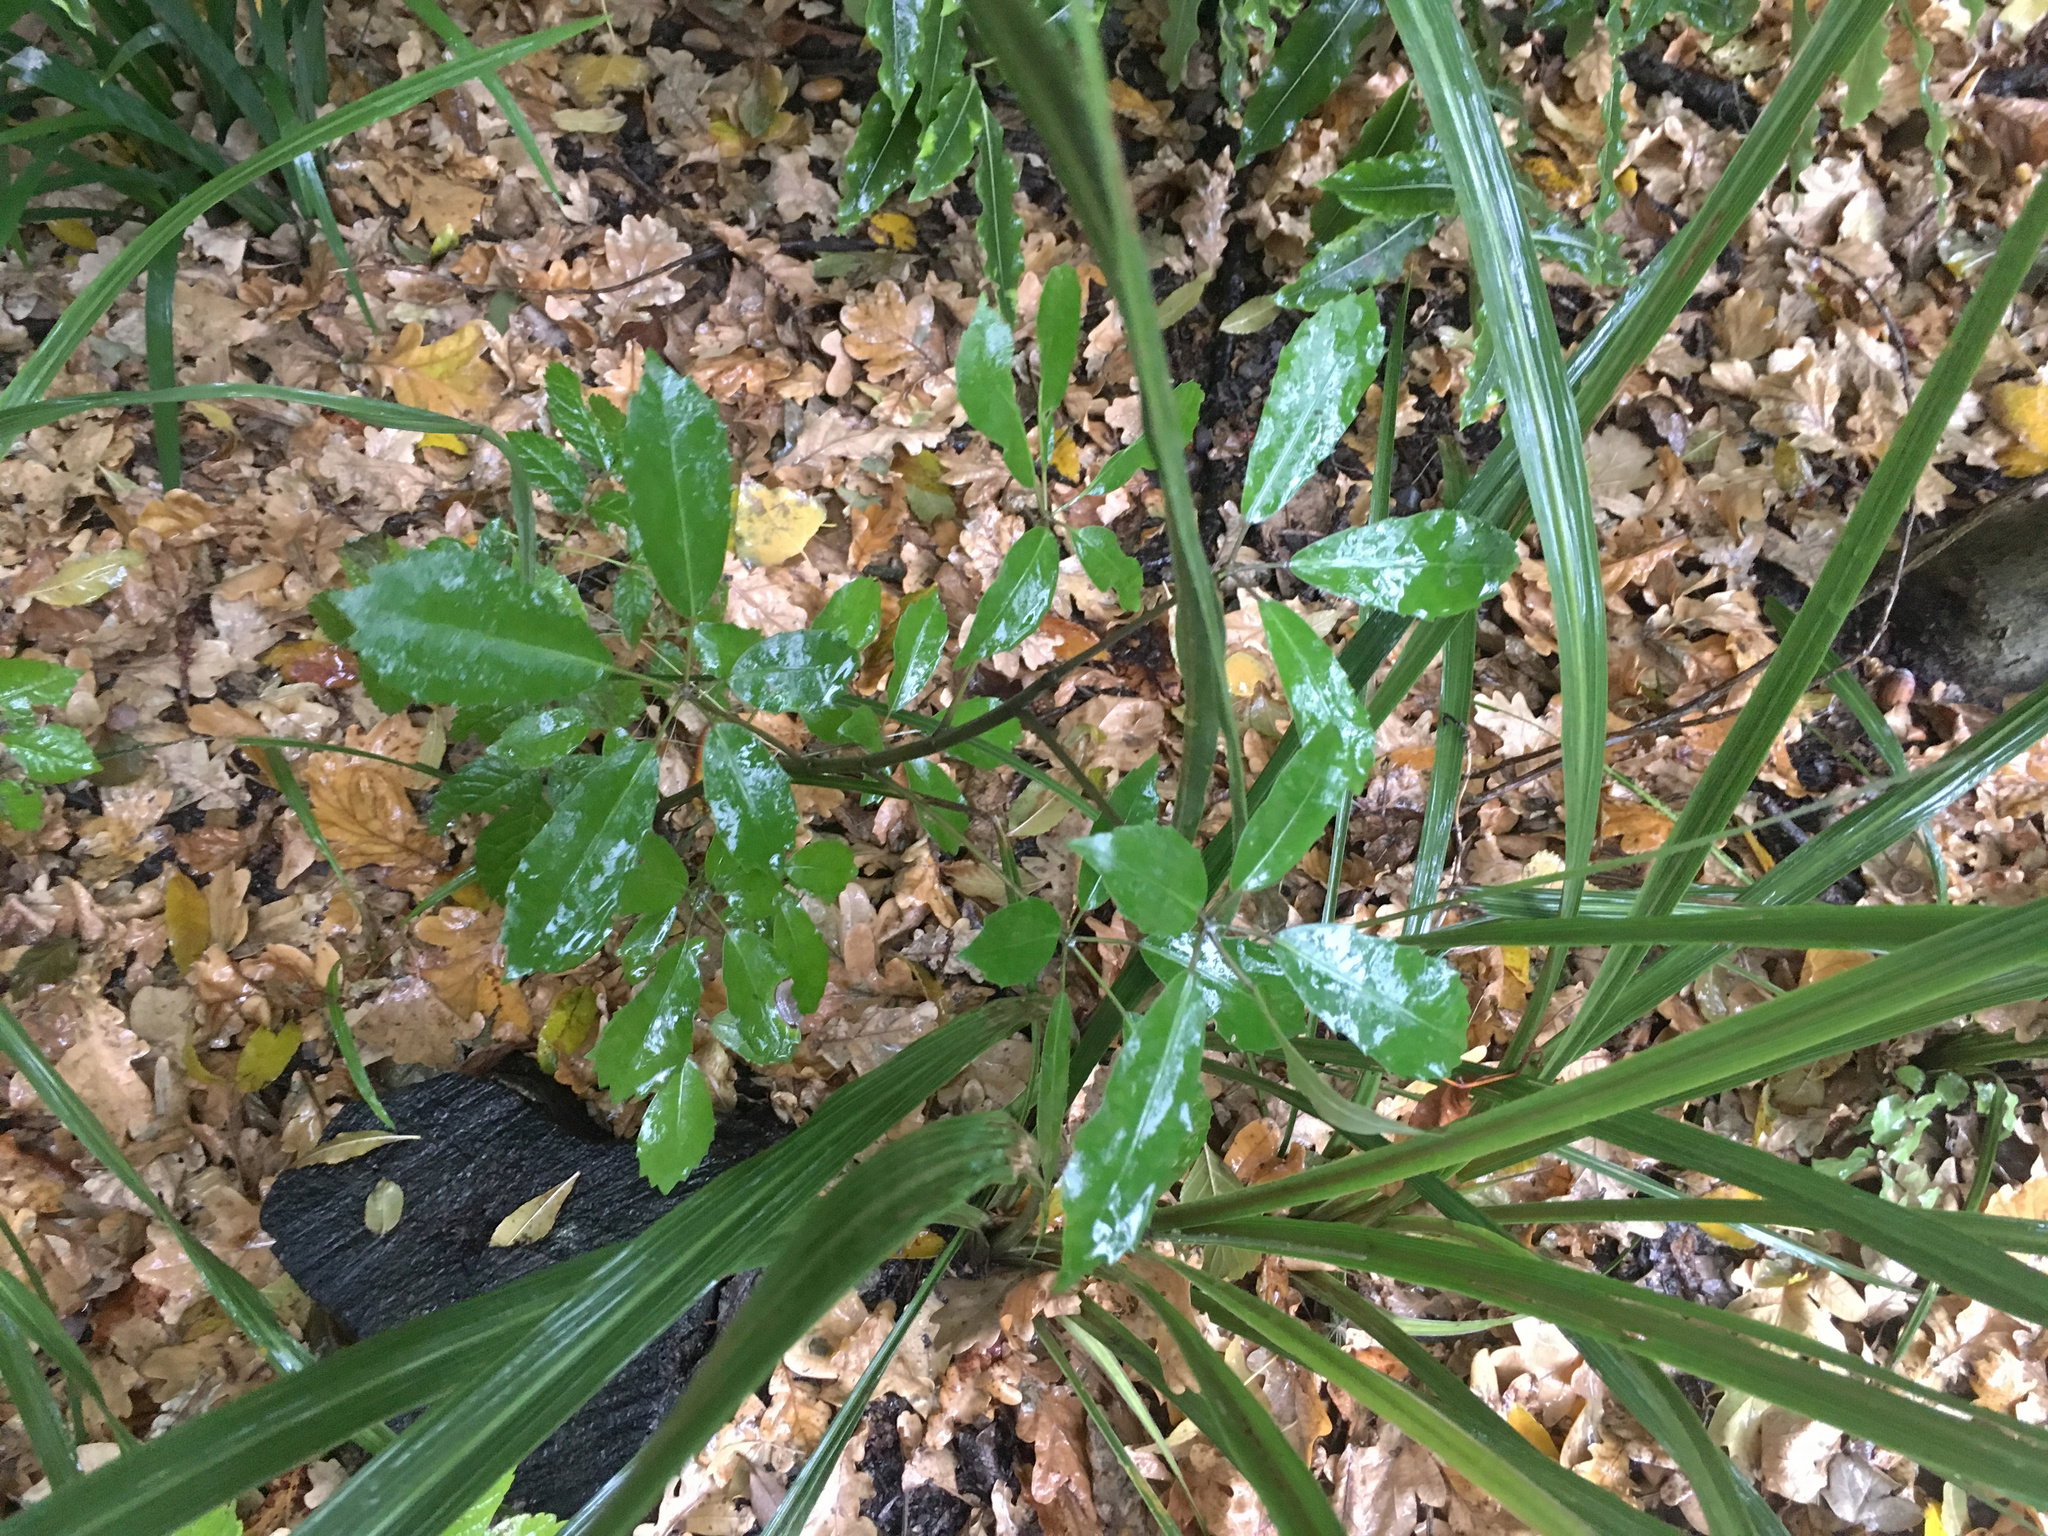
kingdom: Plantae
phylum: Tracheophyta
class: Magnoliopsida
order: Apiales
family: Araliaceae
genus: Neopanax
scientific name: Neopanax arboreus
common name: Five-fingers
